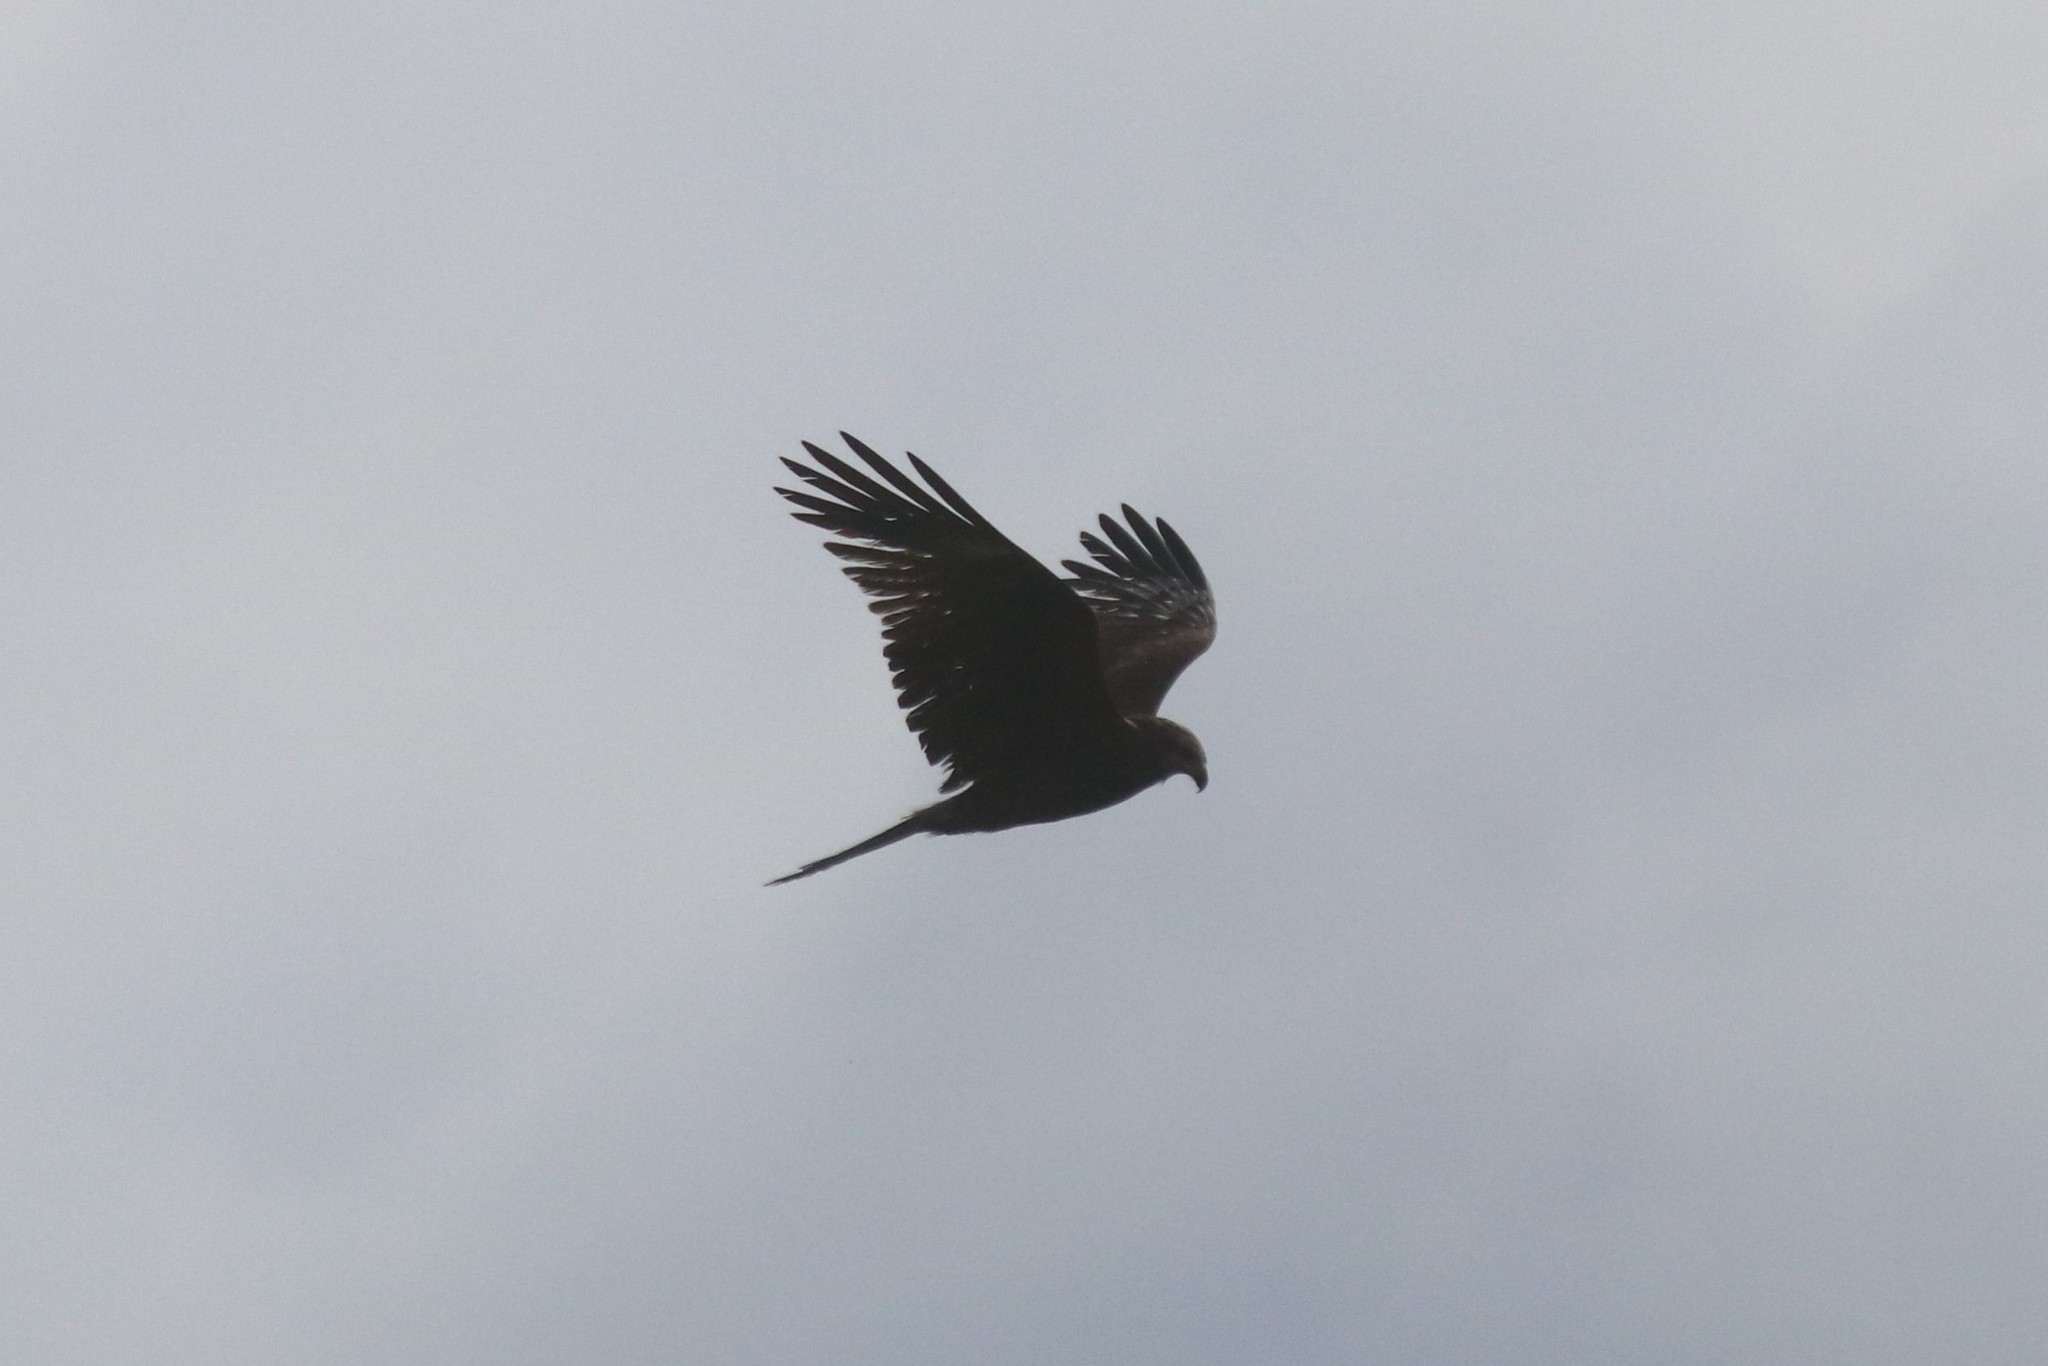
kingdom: Animalia
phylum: Chordata
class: Aves
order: Accipitriformes
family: Accipitridae
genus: Milvus
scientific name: Milvus migrans
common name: Black kite
